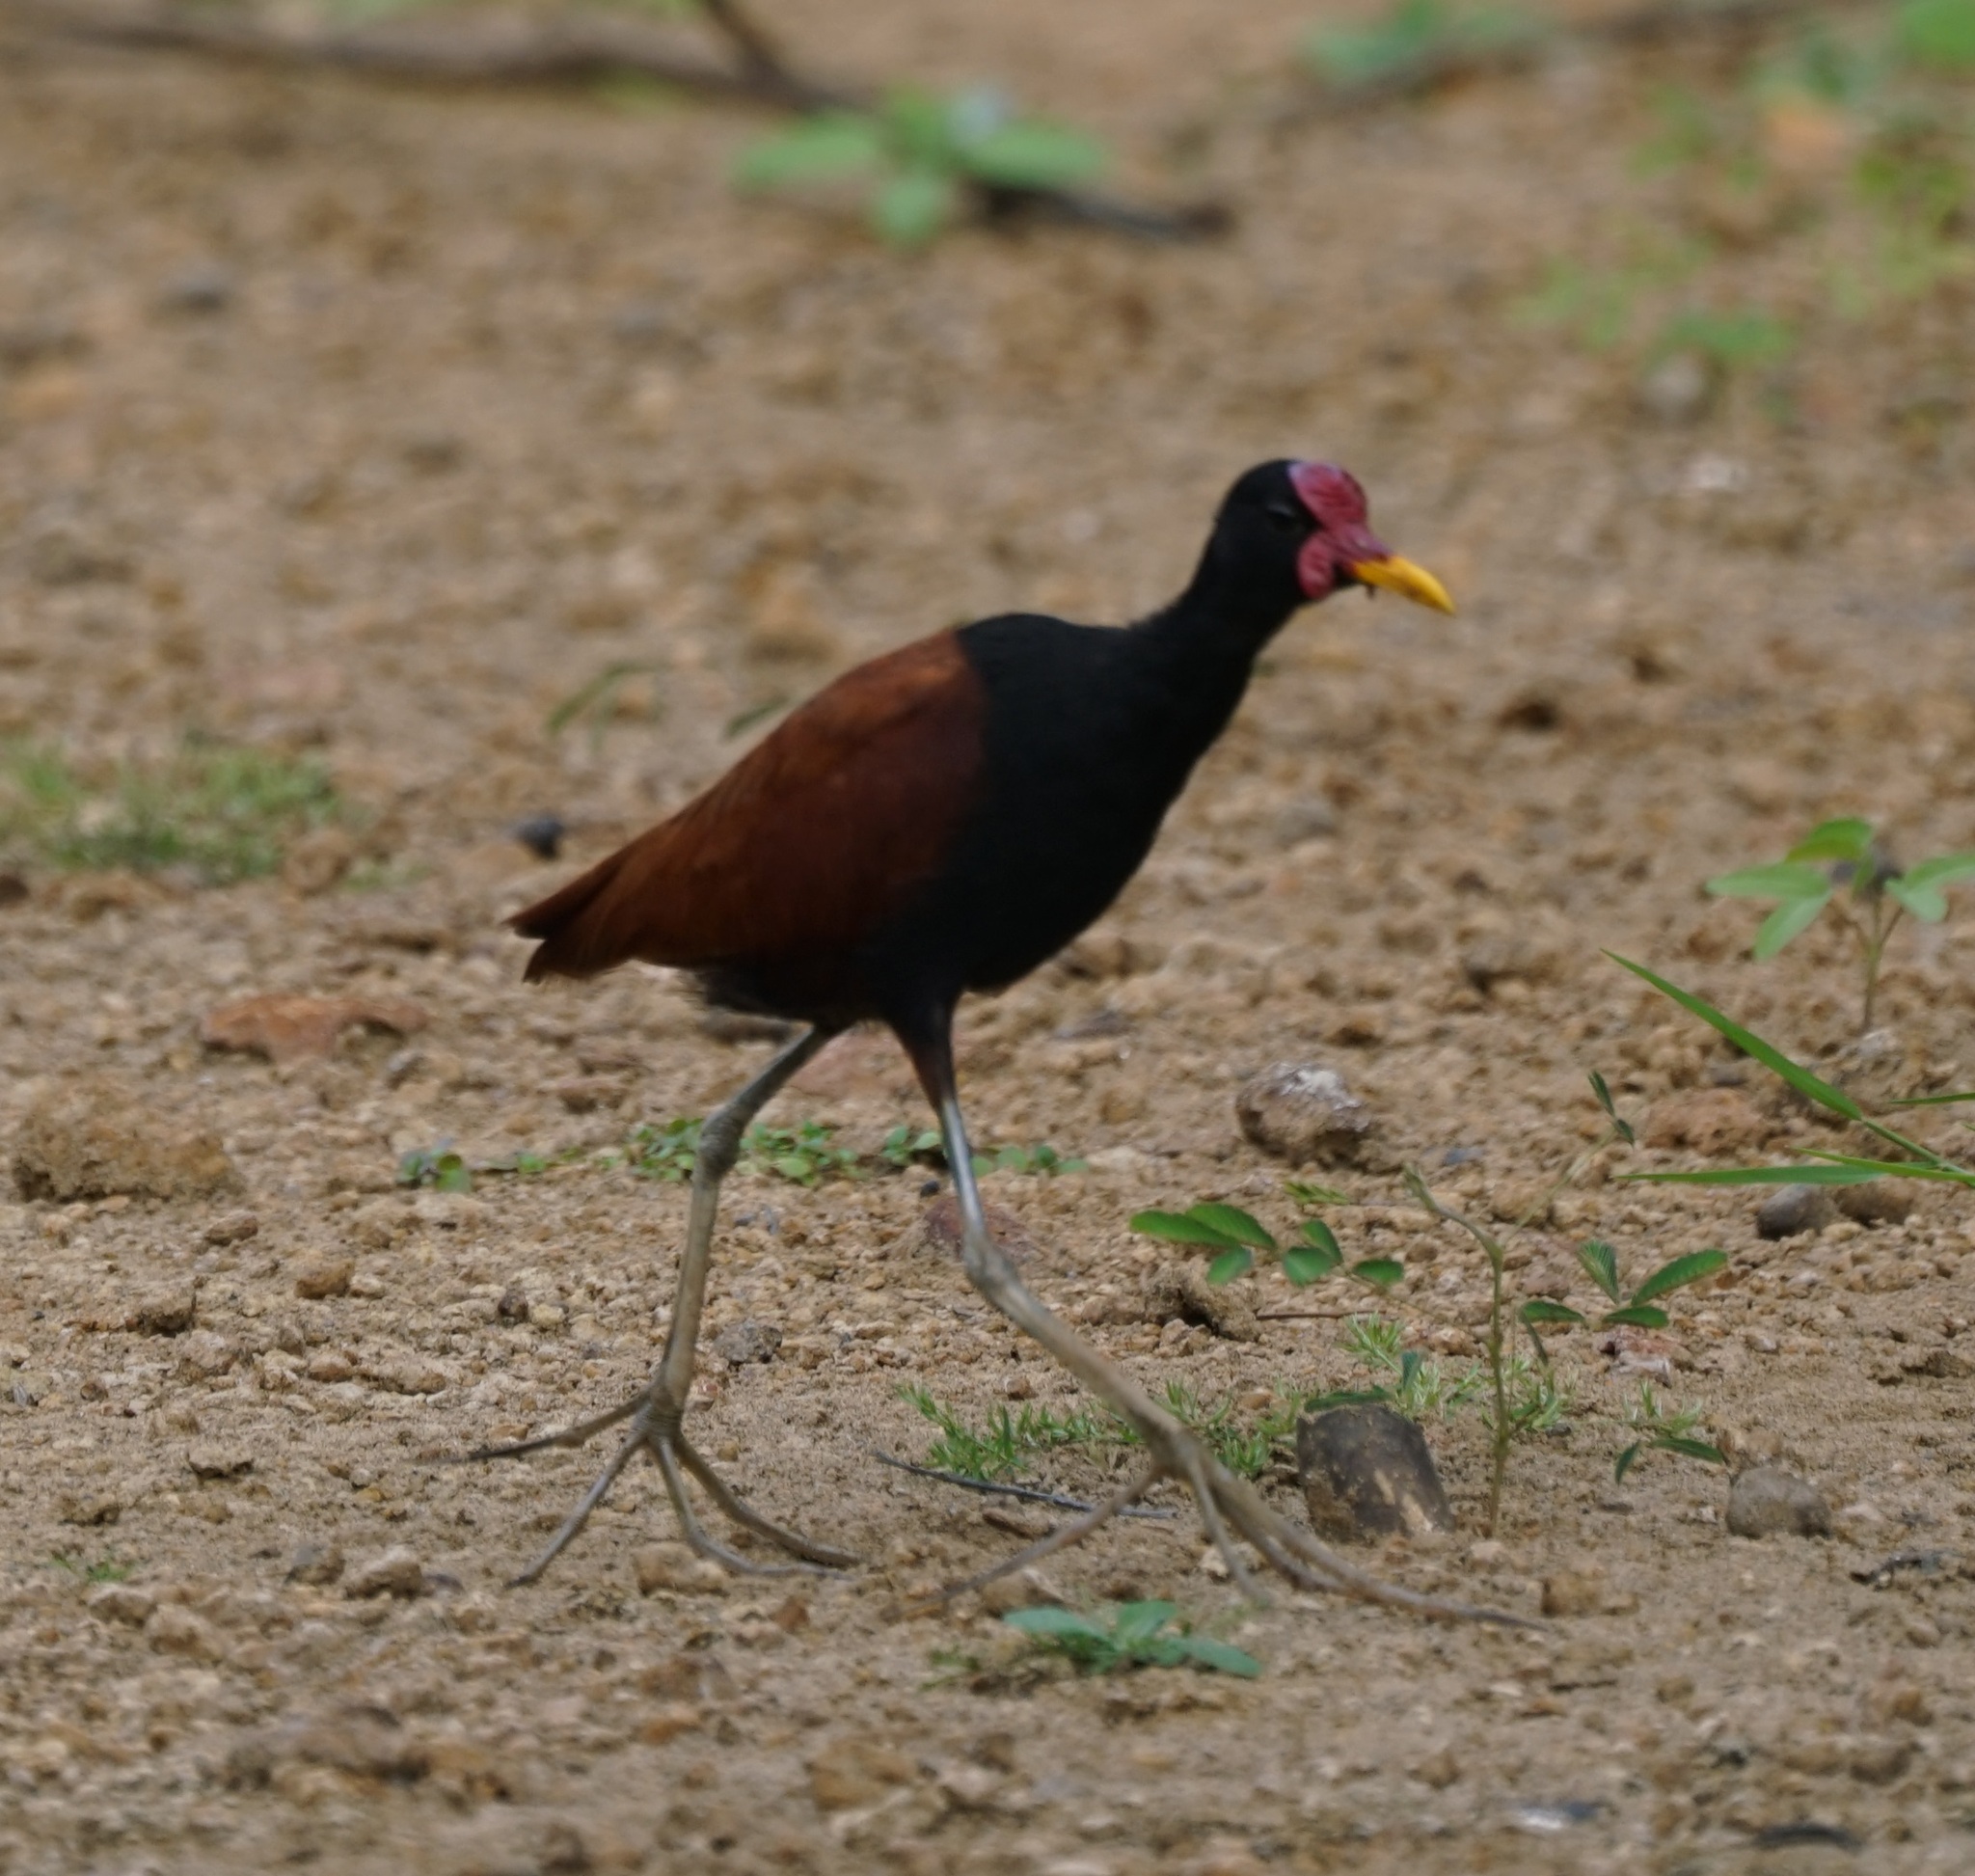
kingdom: Animalia
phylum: Chordata
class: Aves
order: Charadriiformes
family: Jacanidae
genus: Jacana
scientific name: Jacana jacana
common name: Wattled jacana
